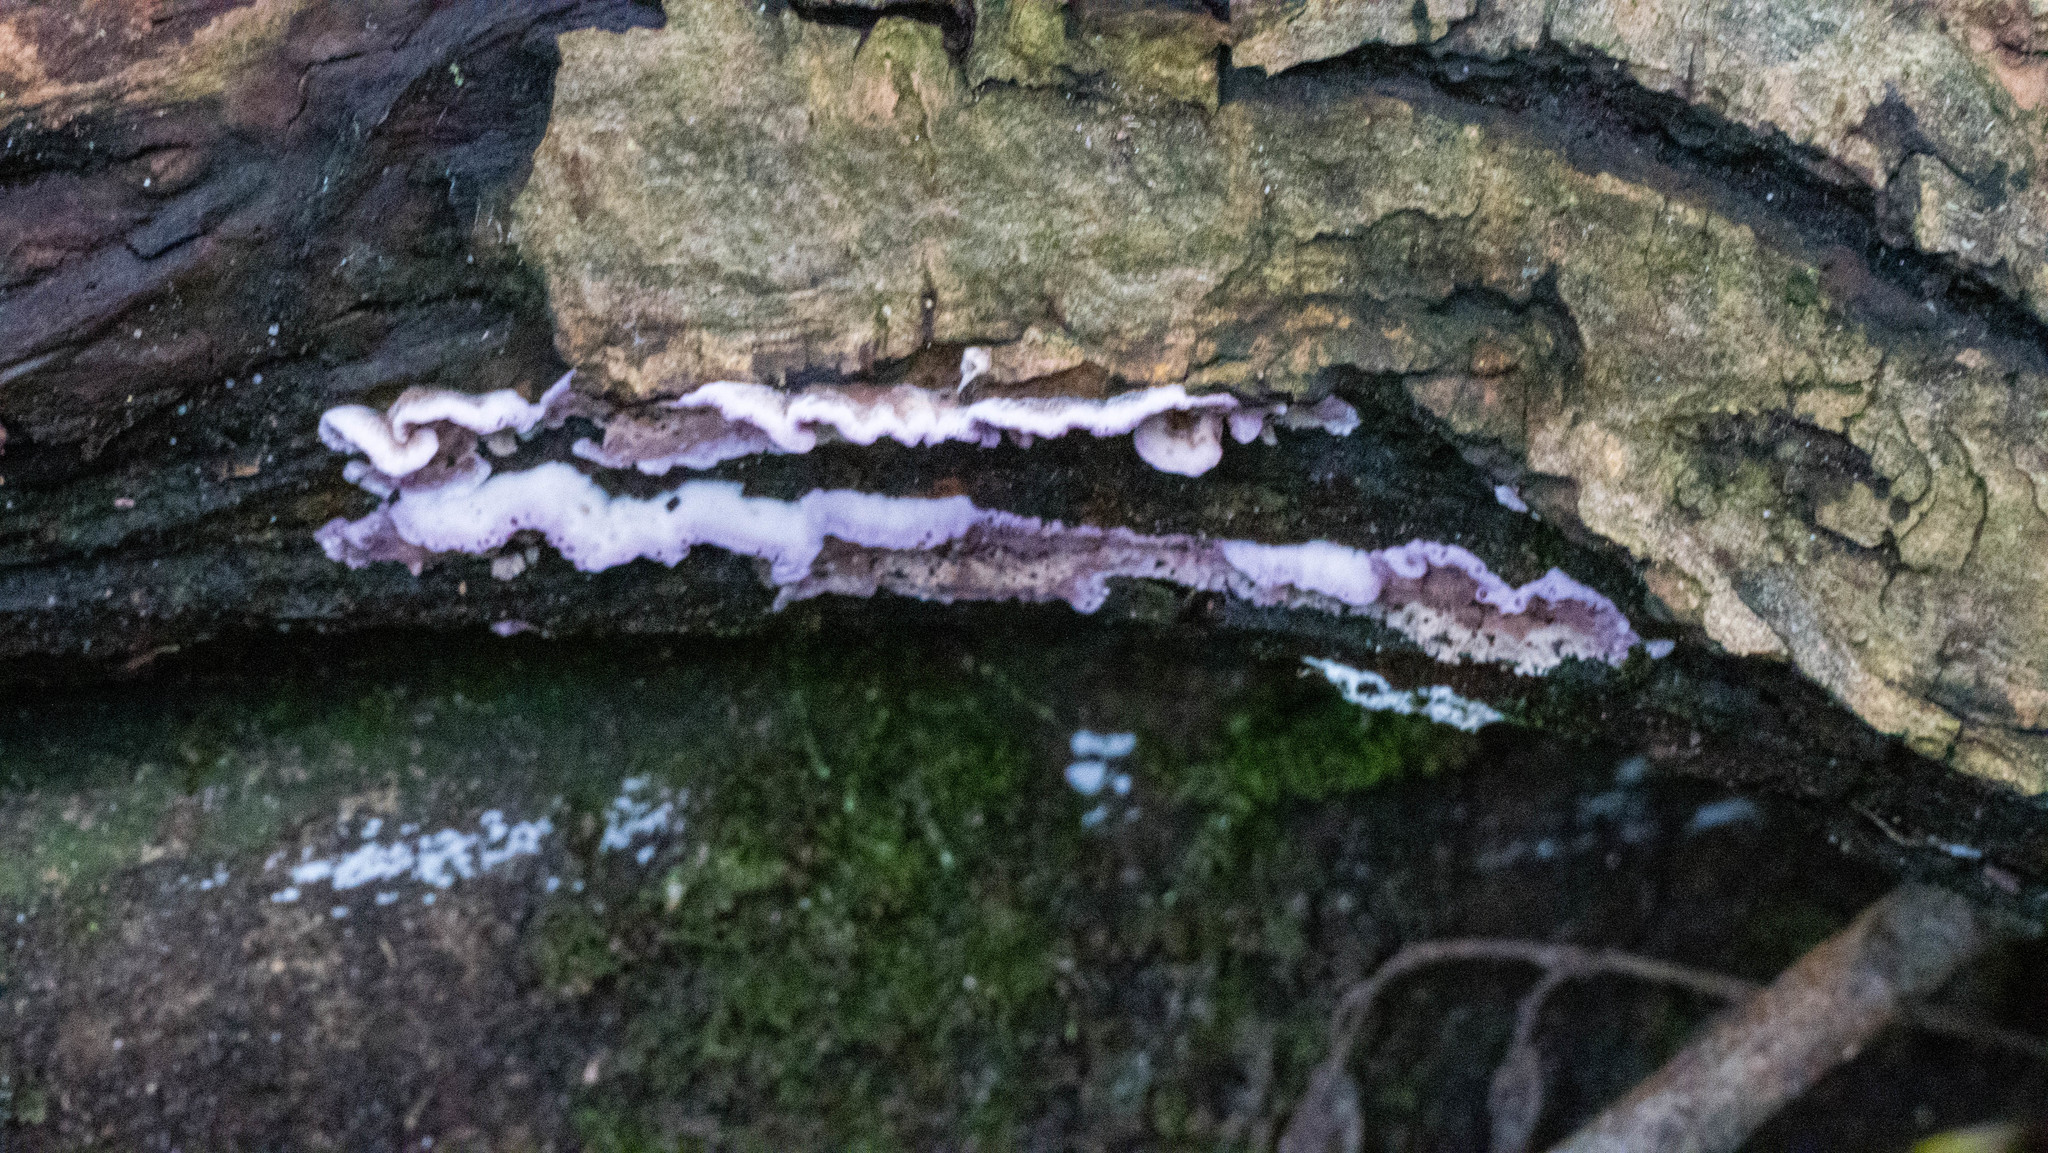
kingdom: Fungi
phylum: Basidiomycota
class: Agaricomycetes
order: Hymenochaetales
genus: Trichaptum
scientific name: Trichaptum abietinum
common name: Purplepore bracket
